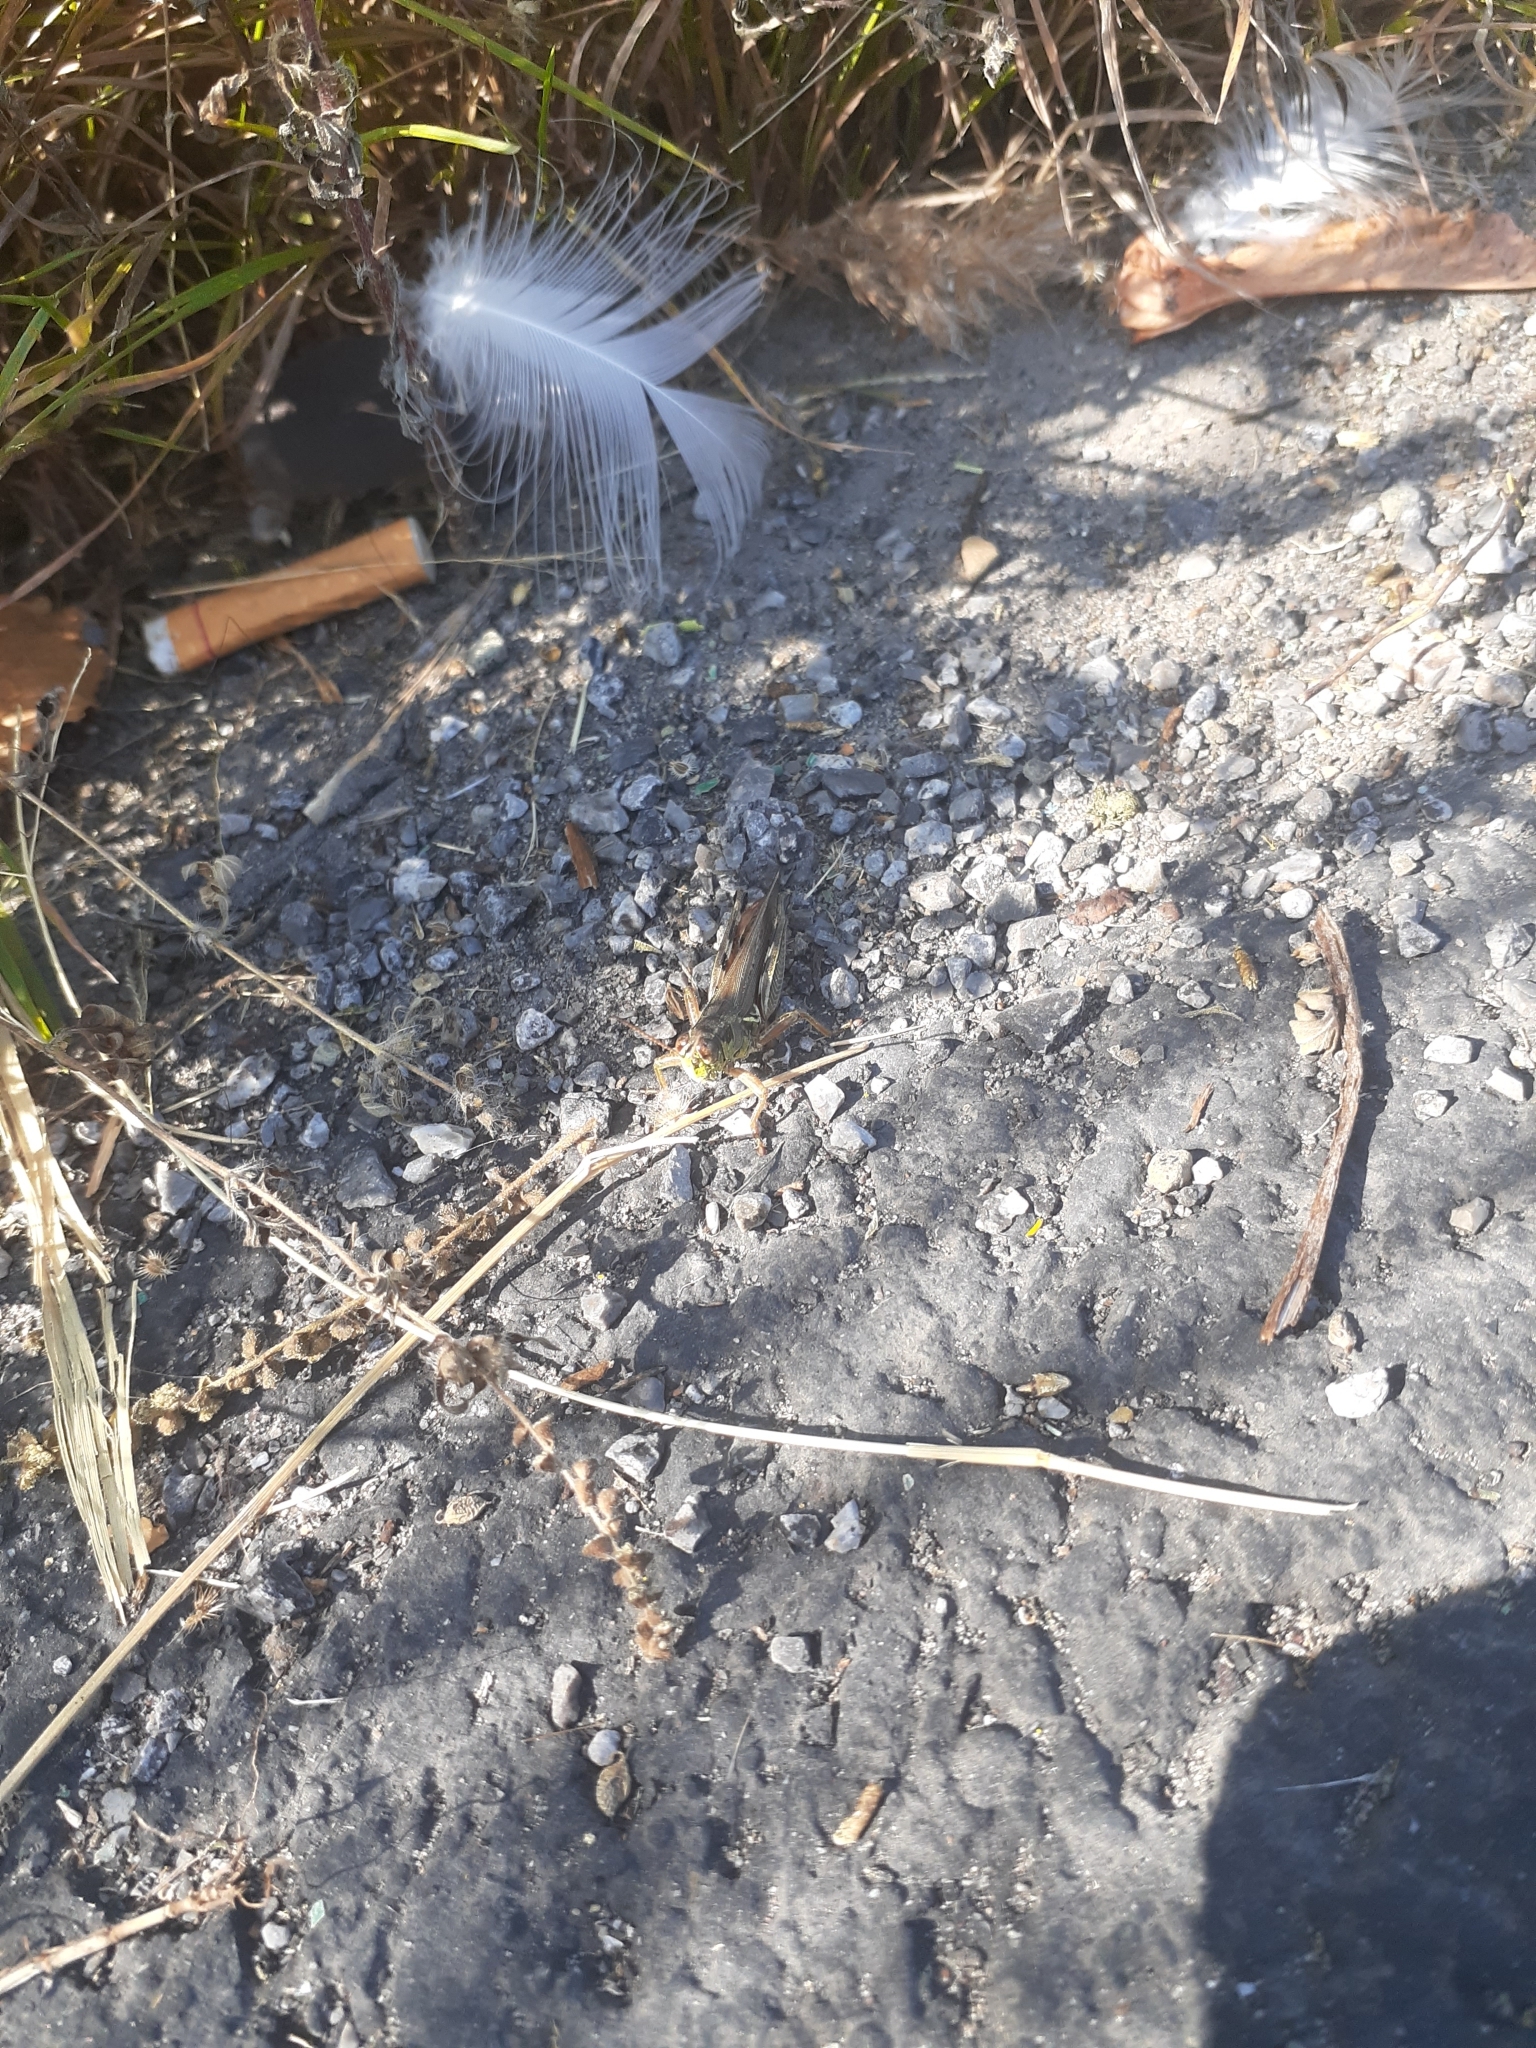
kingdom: Animalia
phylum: Arthropoda
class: Insecta
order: Orthoptera
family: Acrididae
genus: Melanoplus
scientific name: Melanoplus femurrubrum
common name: Red-legged grasshopper
